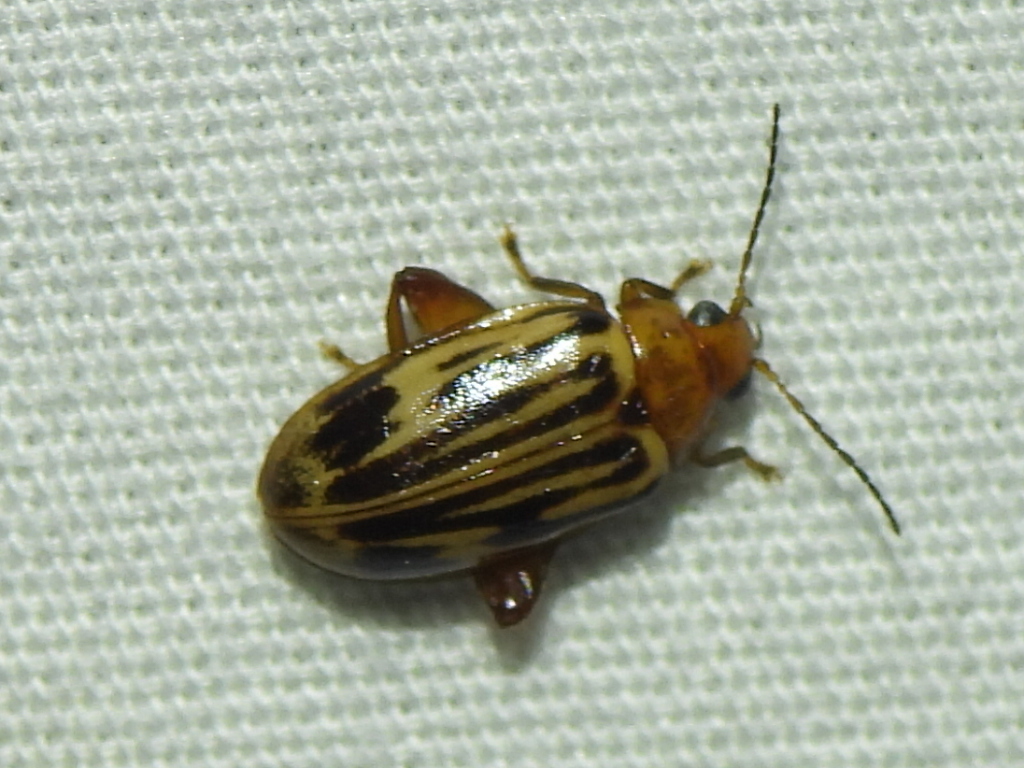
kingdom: Animalia
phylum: Arthropoda
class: Insecta
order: Coleoptera
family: Scirtidae
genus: Ora
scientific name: Ora troberti
